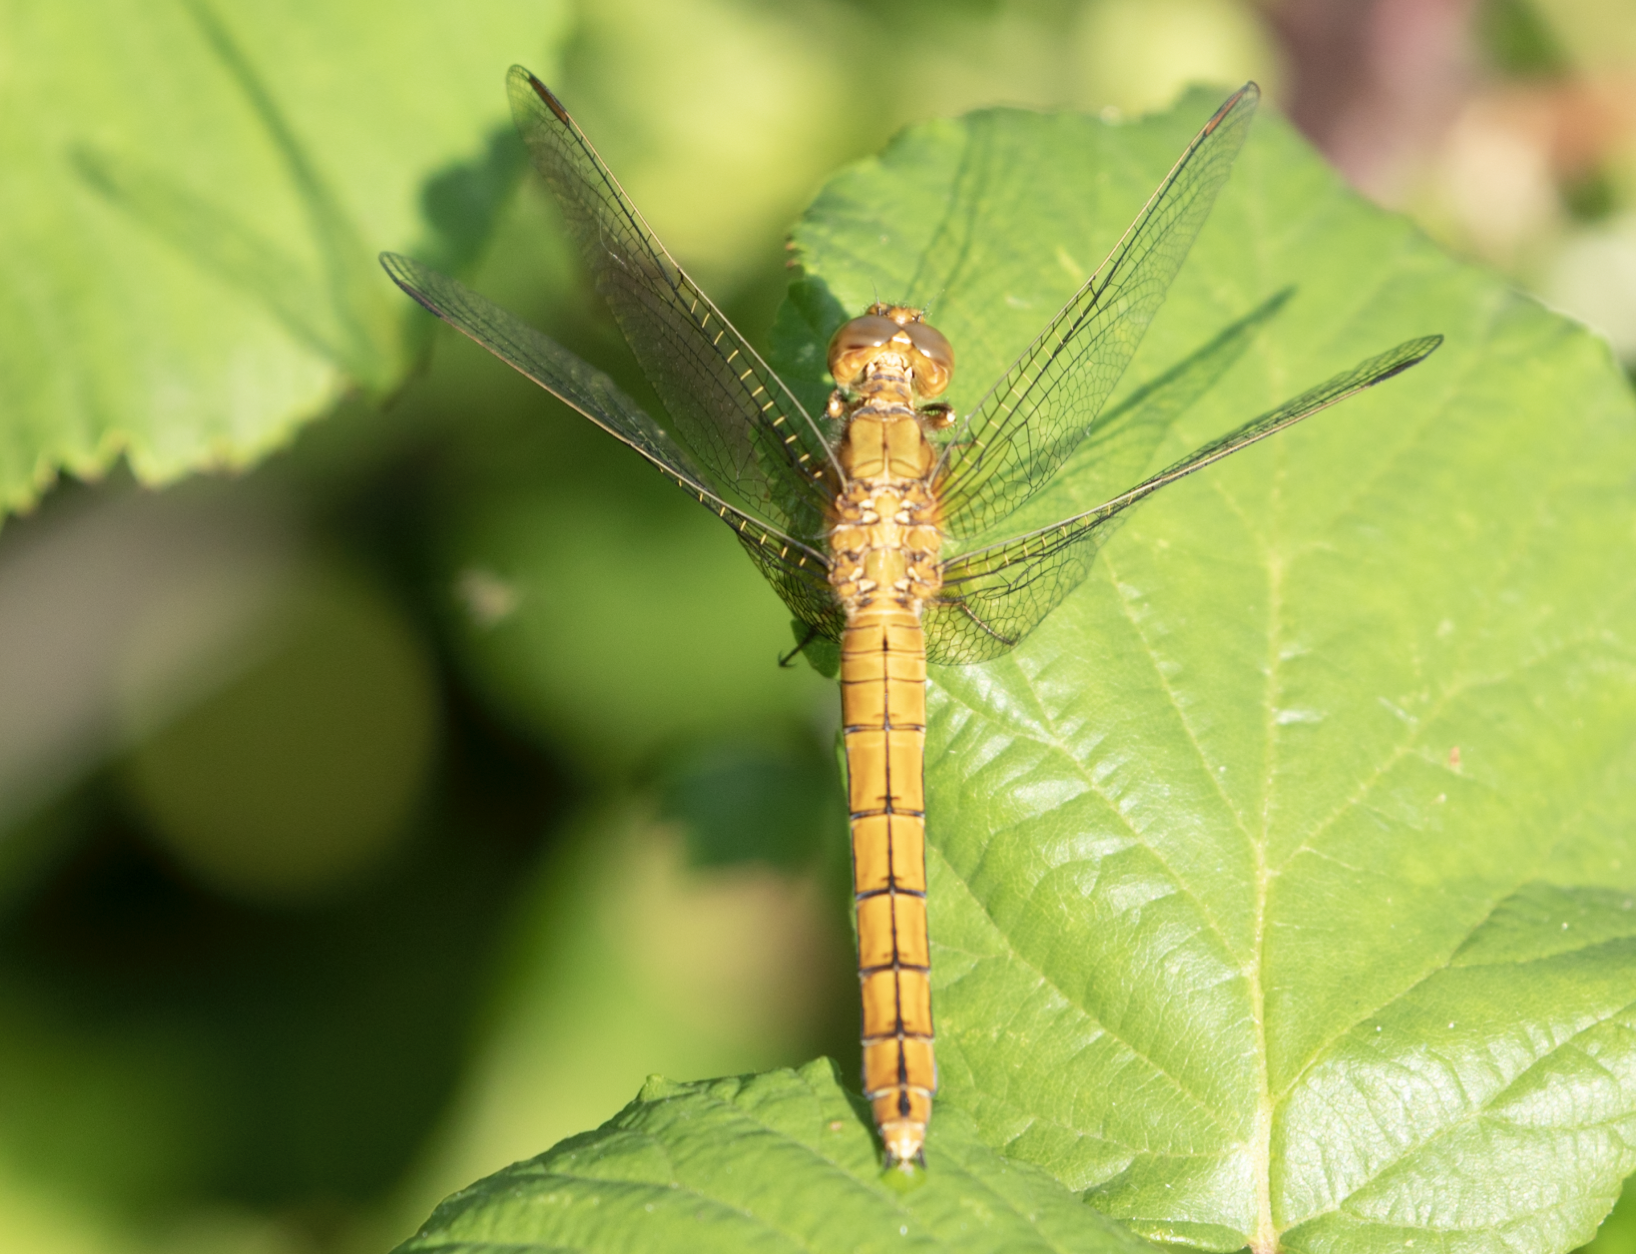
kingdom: Animalia
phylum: Arthropoda
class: Insecta
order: Odonata
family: Libellulidae
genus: Orthetrum
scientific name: Orthetrum coerulescens
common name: Keeled skimmer
